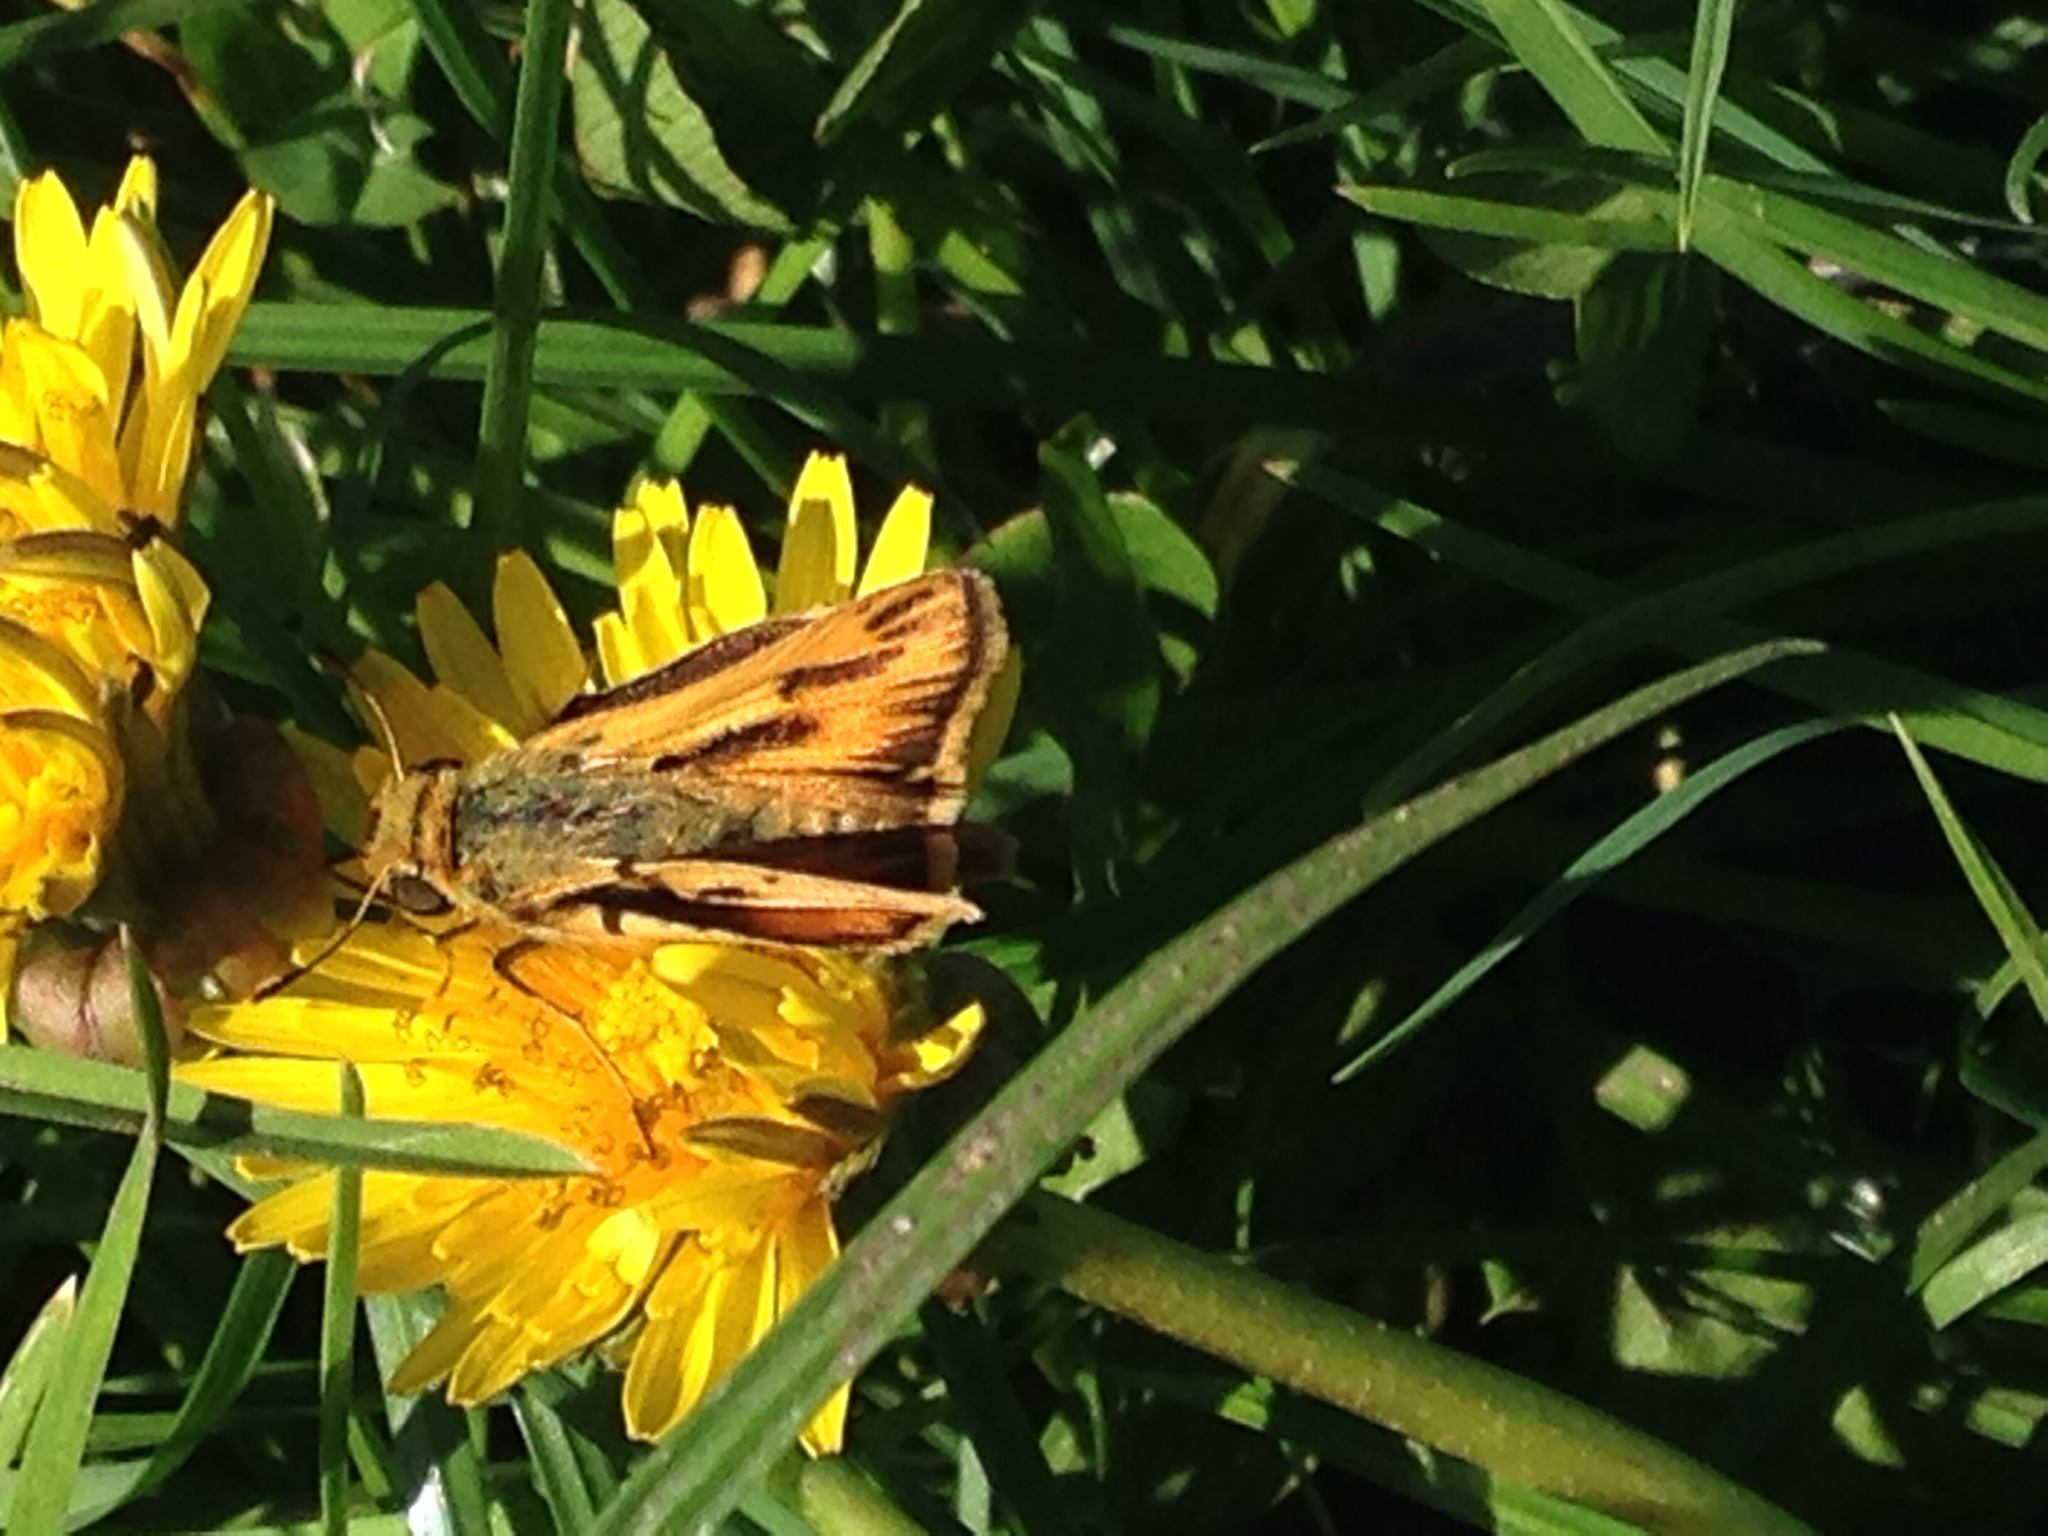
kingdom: Animalia
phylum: Arthropoda
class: Insecta
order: Lepidoptera
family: Hesperiidae
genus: Hylephila
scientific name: Hylephila phyleus
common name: Fiery skipper
